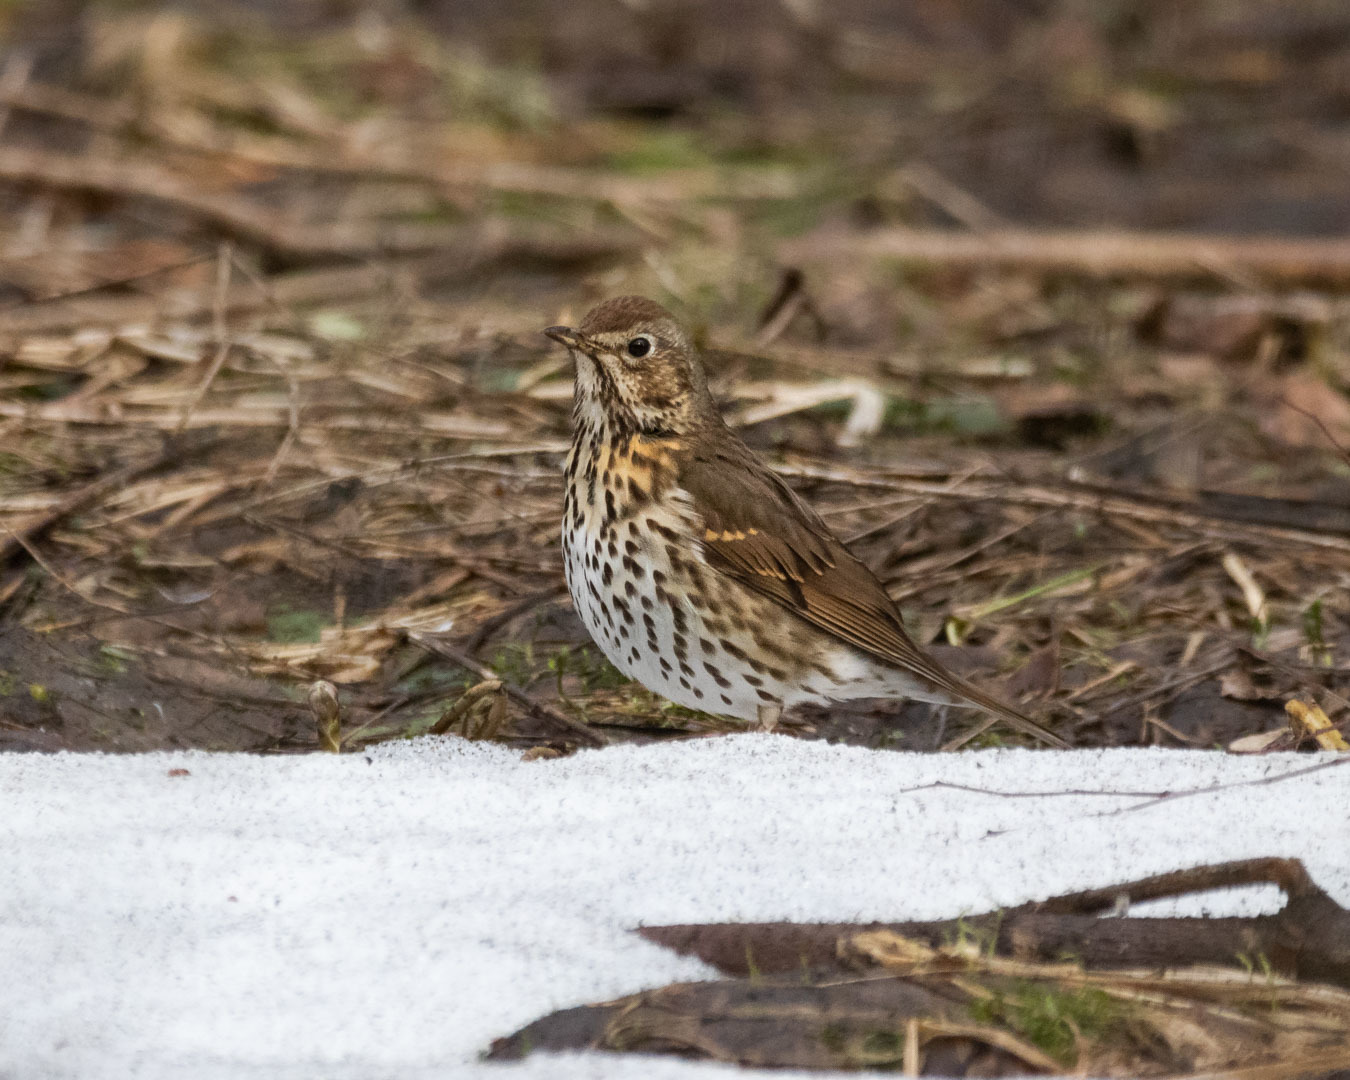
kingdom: Animalia
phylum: Chordata
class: Aves
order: Passeriformes
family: Turdidae
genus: Turdus
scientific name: Turdus philomelos
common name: Song thrush
